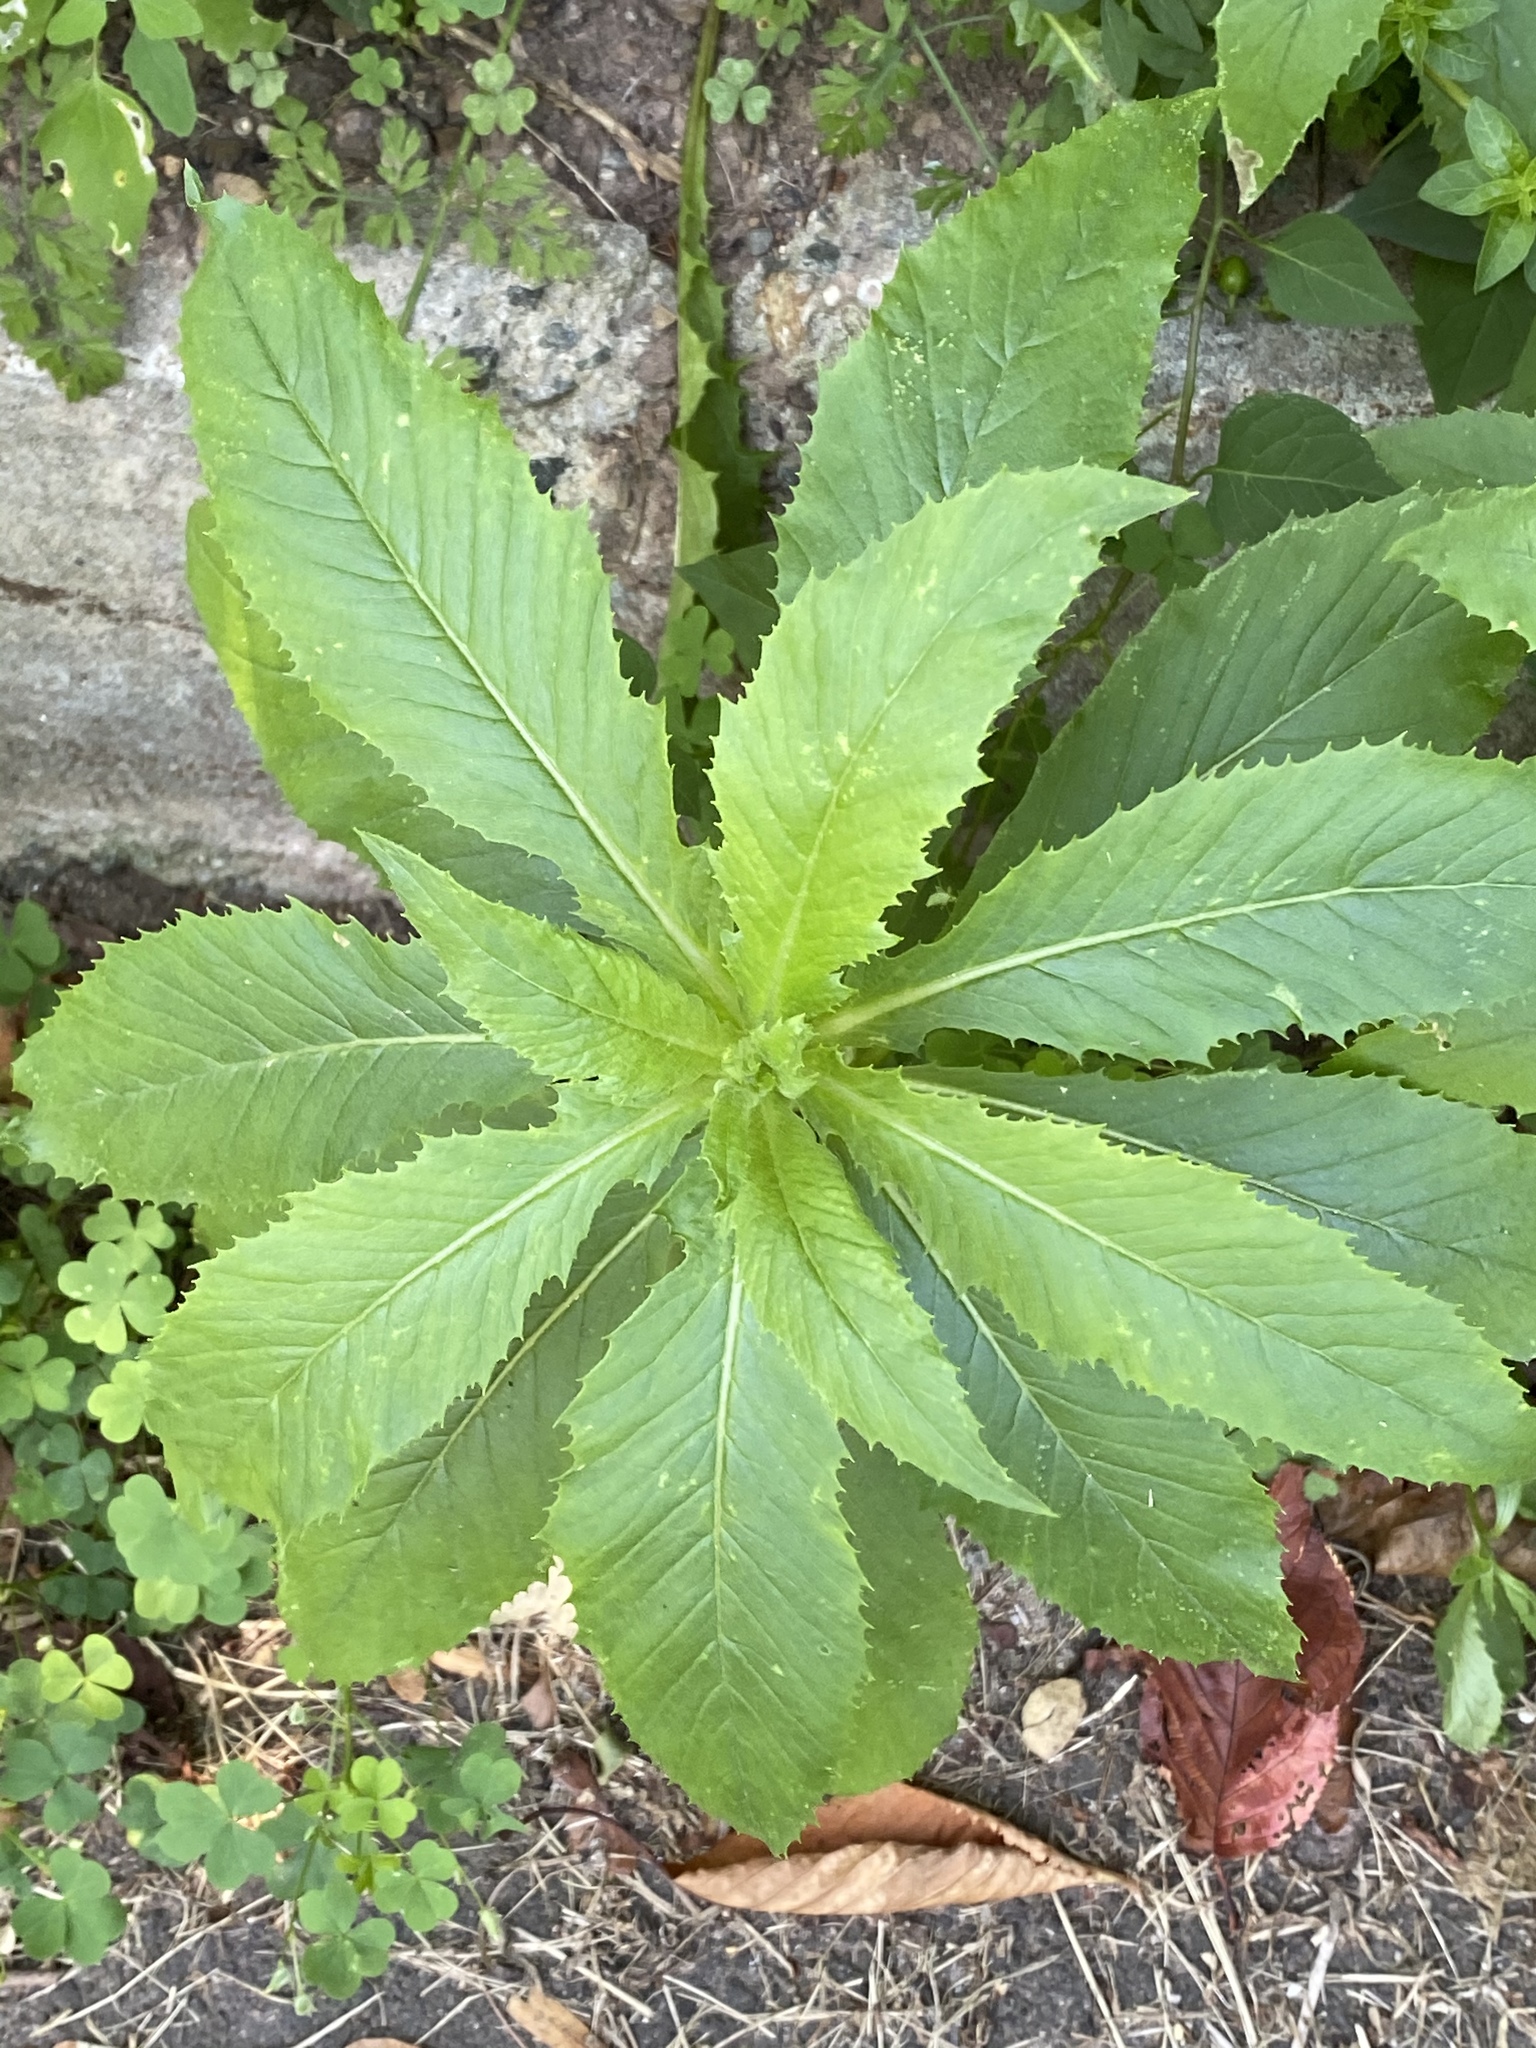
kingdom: Plantae
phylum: Tracheophyta
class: Magnoliopsida
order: Asterales
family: Asteraceae
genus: Erechtites
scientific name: Erechtites hieraciifolius
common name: American burnweed
